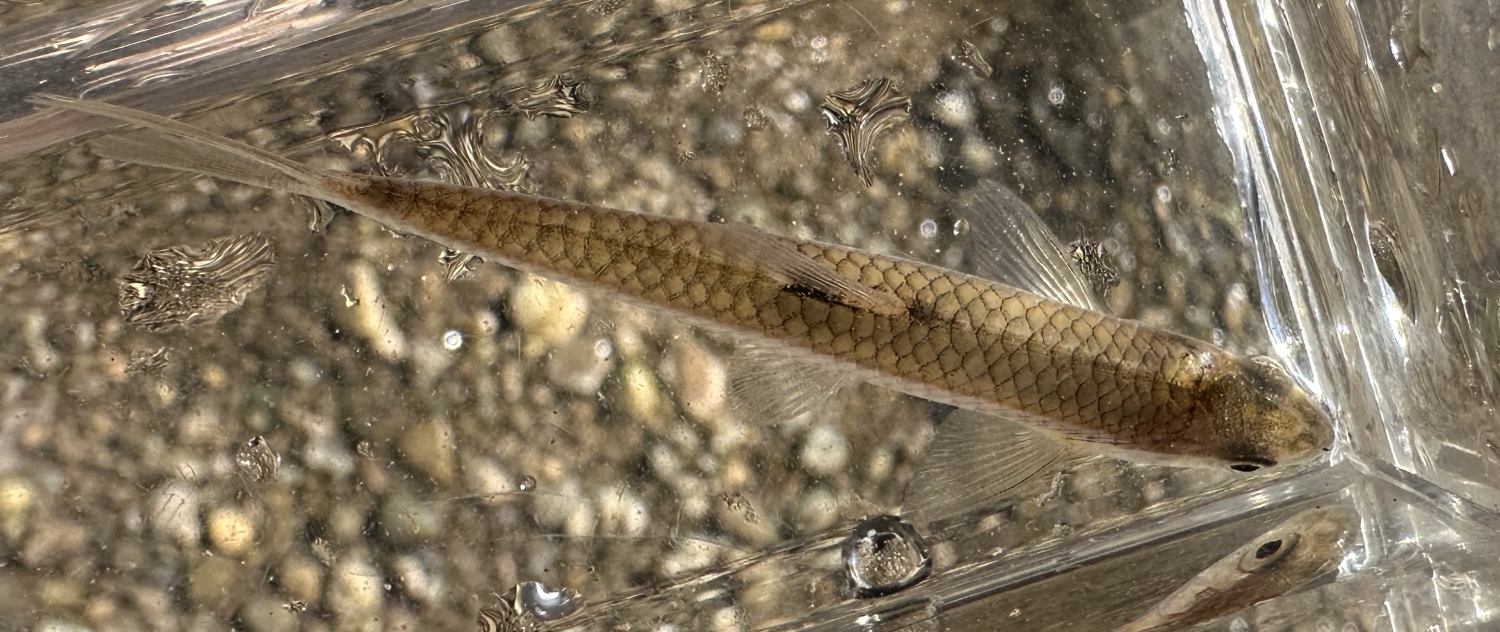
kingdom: Animalia
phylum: Chordata
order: Cypriniformes
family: Cyprinidae
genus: Notropis
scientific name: Notropis
